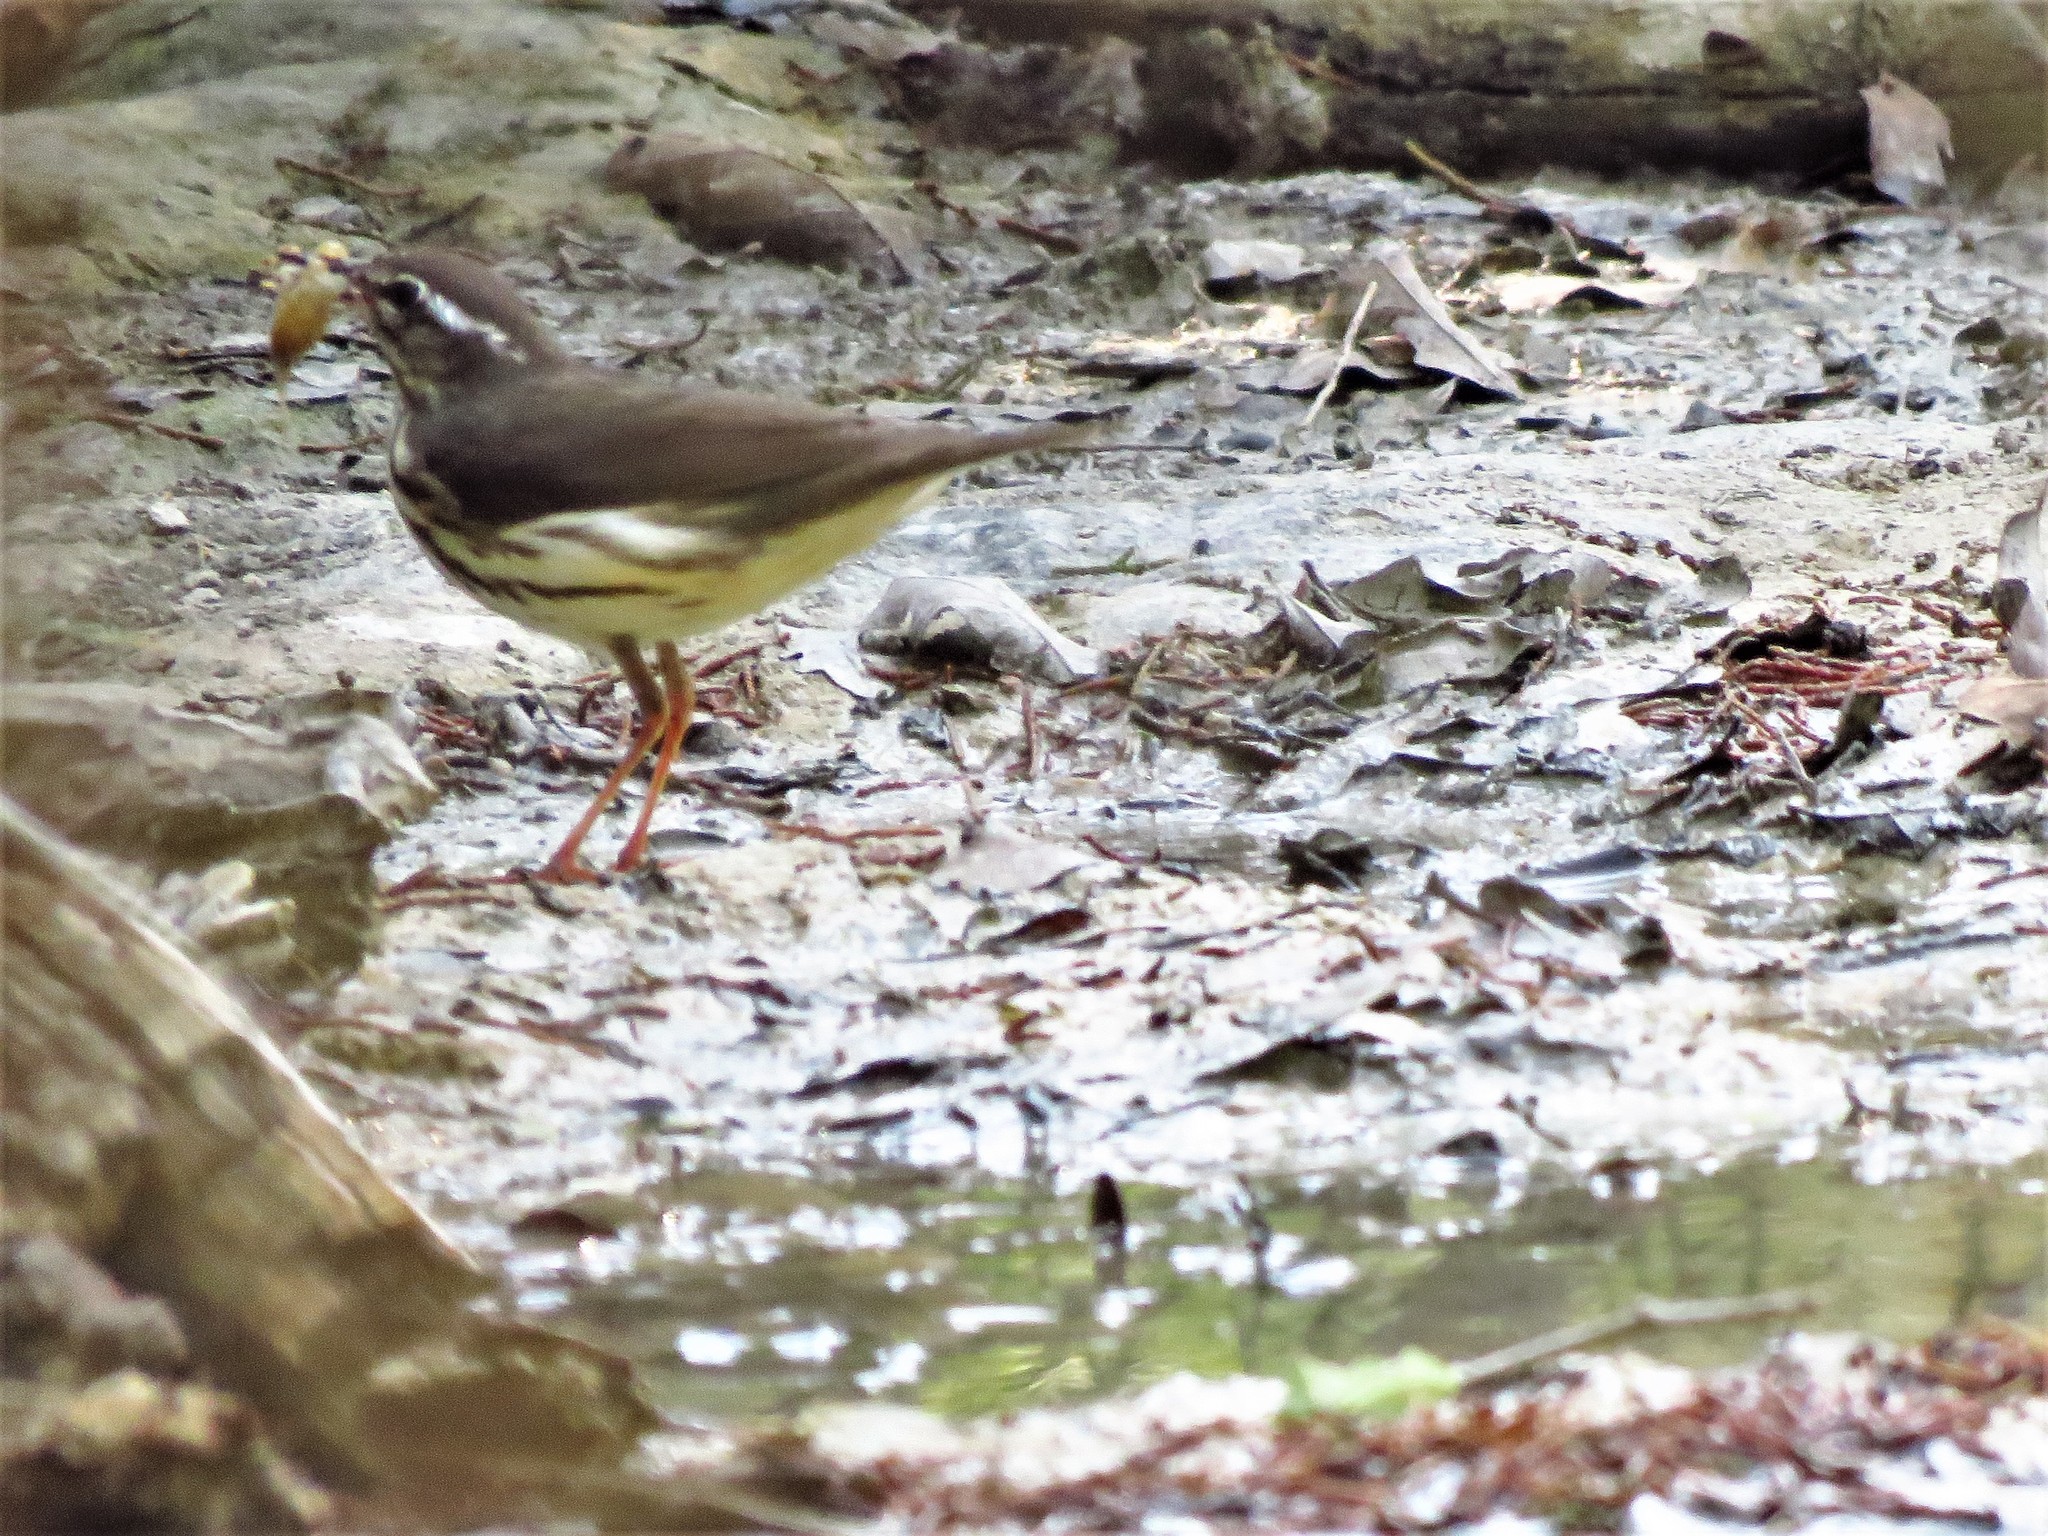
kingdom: Animalia
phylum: Chordata
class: Aves
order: Passeriformes
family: Parulidae
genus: Parkesia
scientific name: Parkesia motacilla
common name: Louisiana waterthrush
